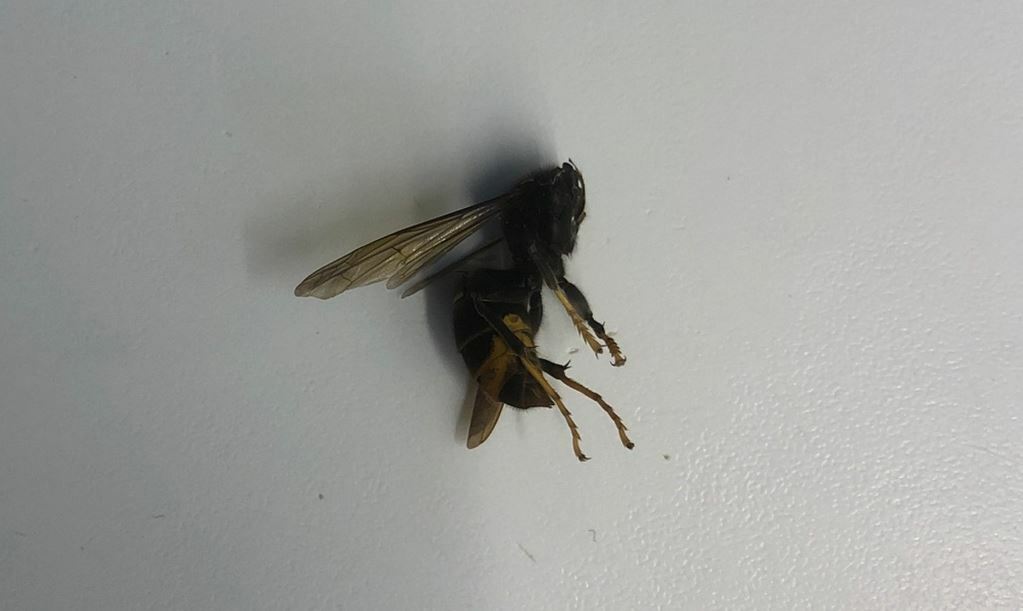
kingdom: Animalia
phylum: Arthropoda
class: Insecta
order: Hymenoptera
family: Vespidae
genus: Vespa
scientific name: Vespa velutina
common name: Asian hornet
